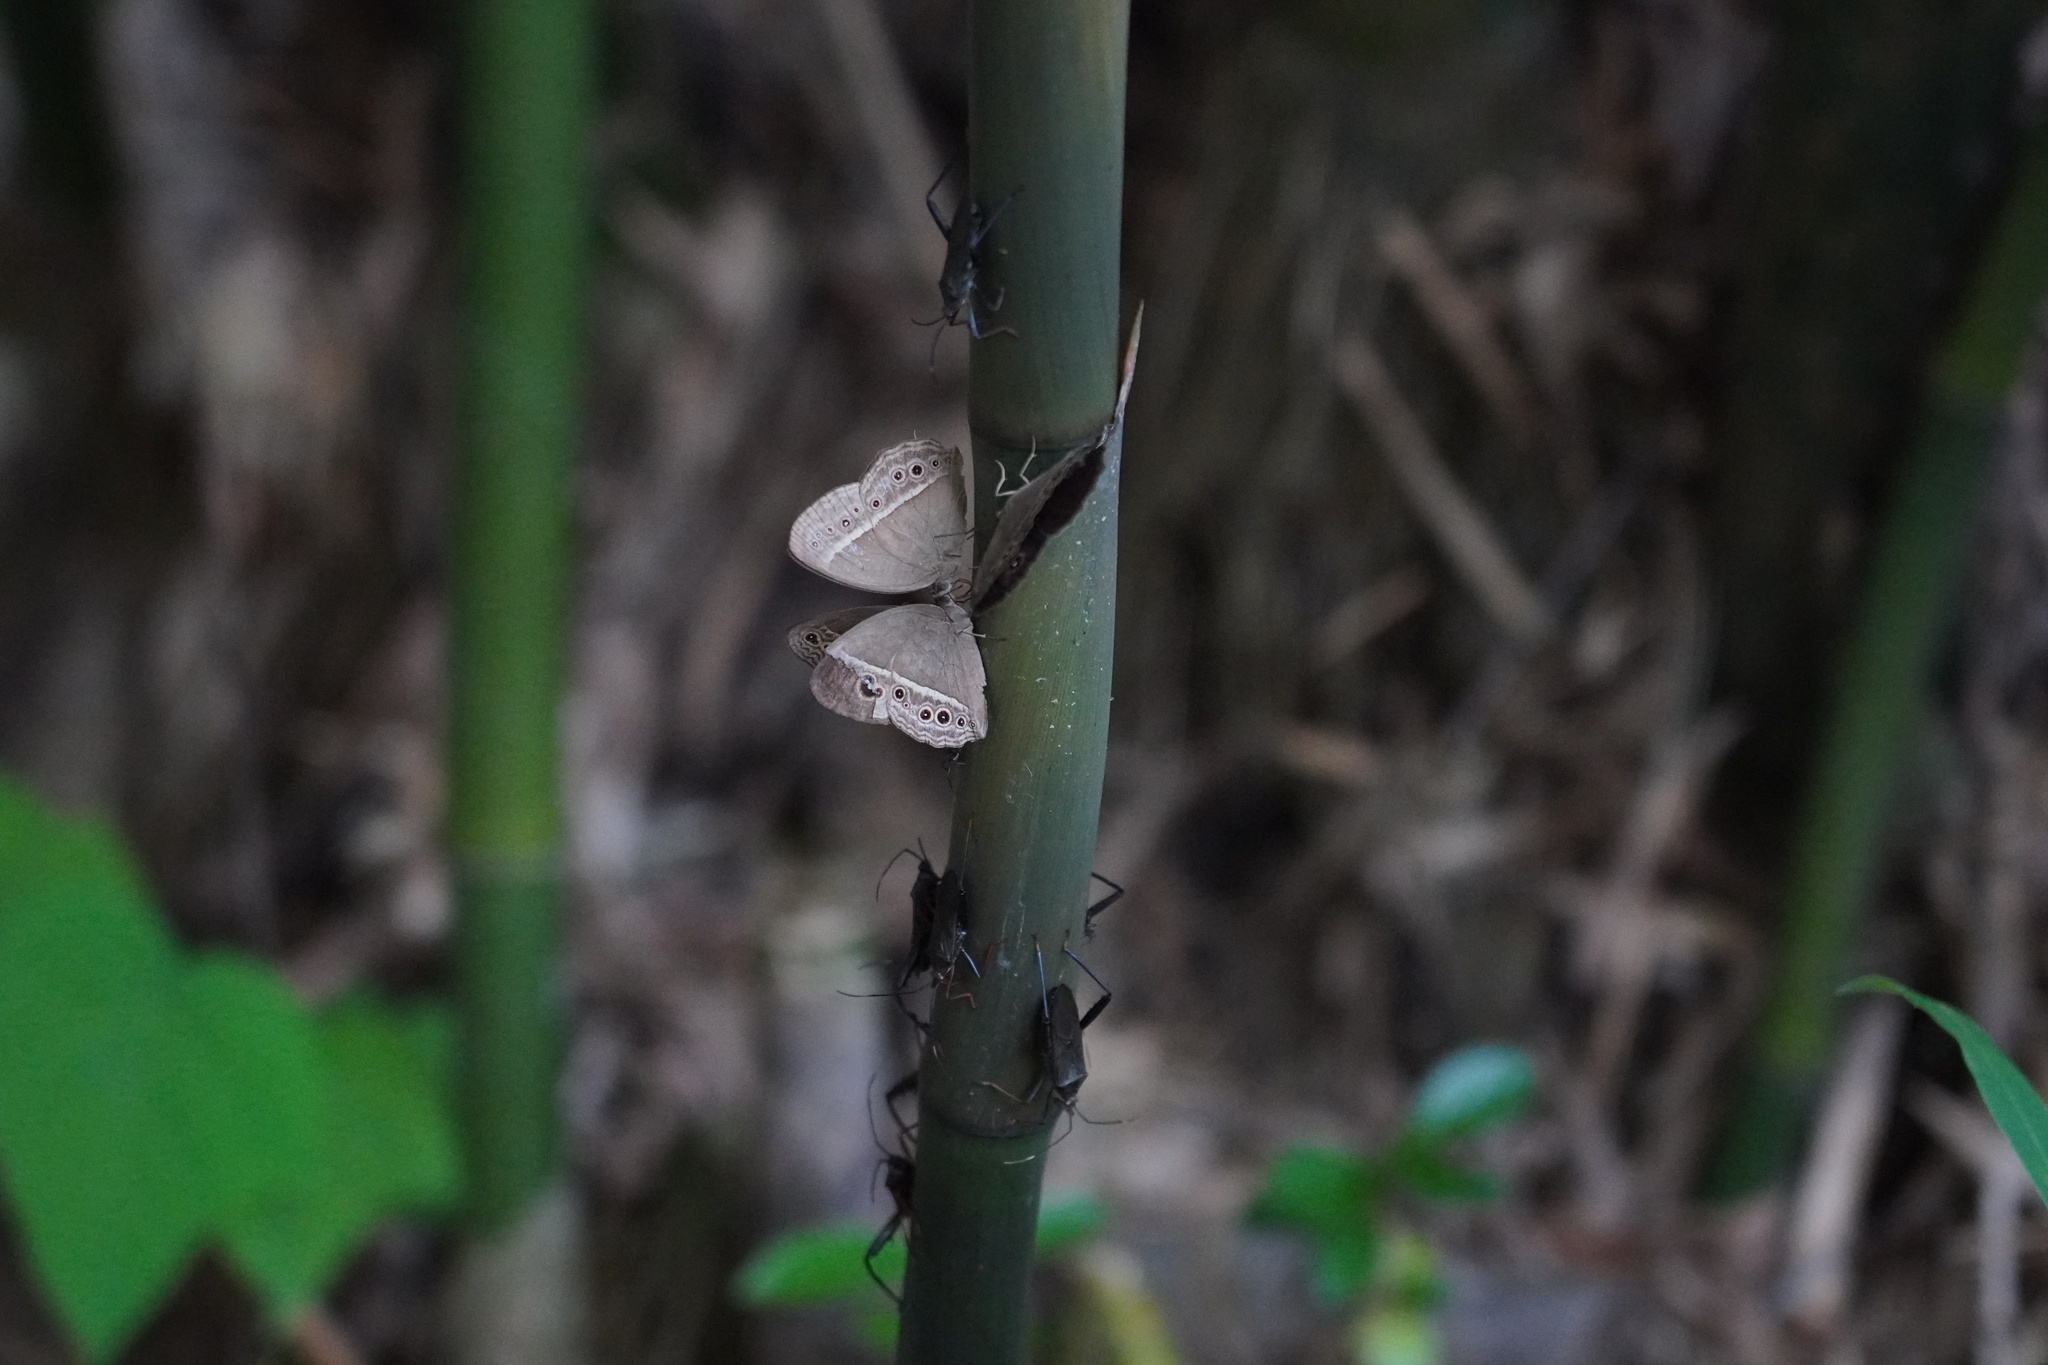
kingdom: Animalia
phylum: Arthropoda
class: Insecta
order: Lepidoptera
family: Nymphalidae
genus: Mycalesis
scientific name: Mycalesis mineus
